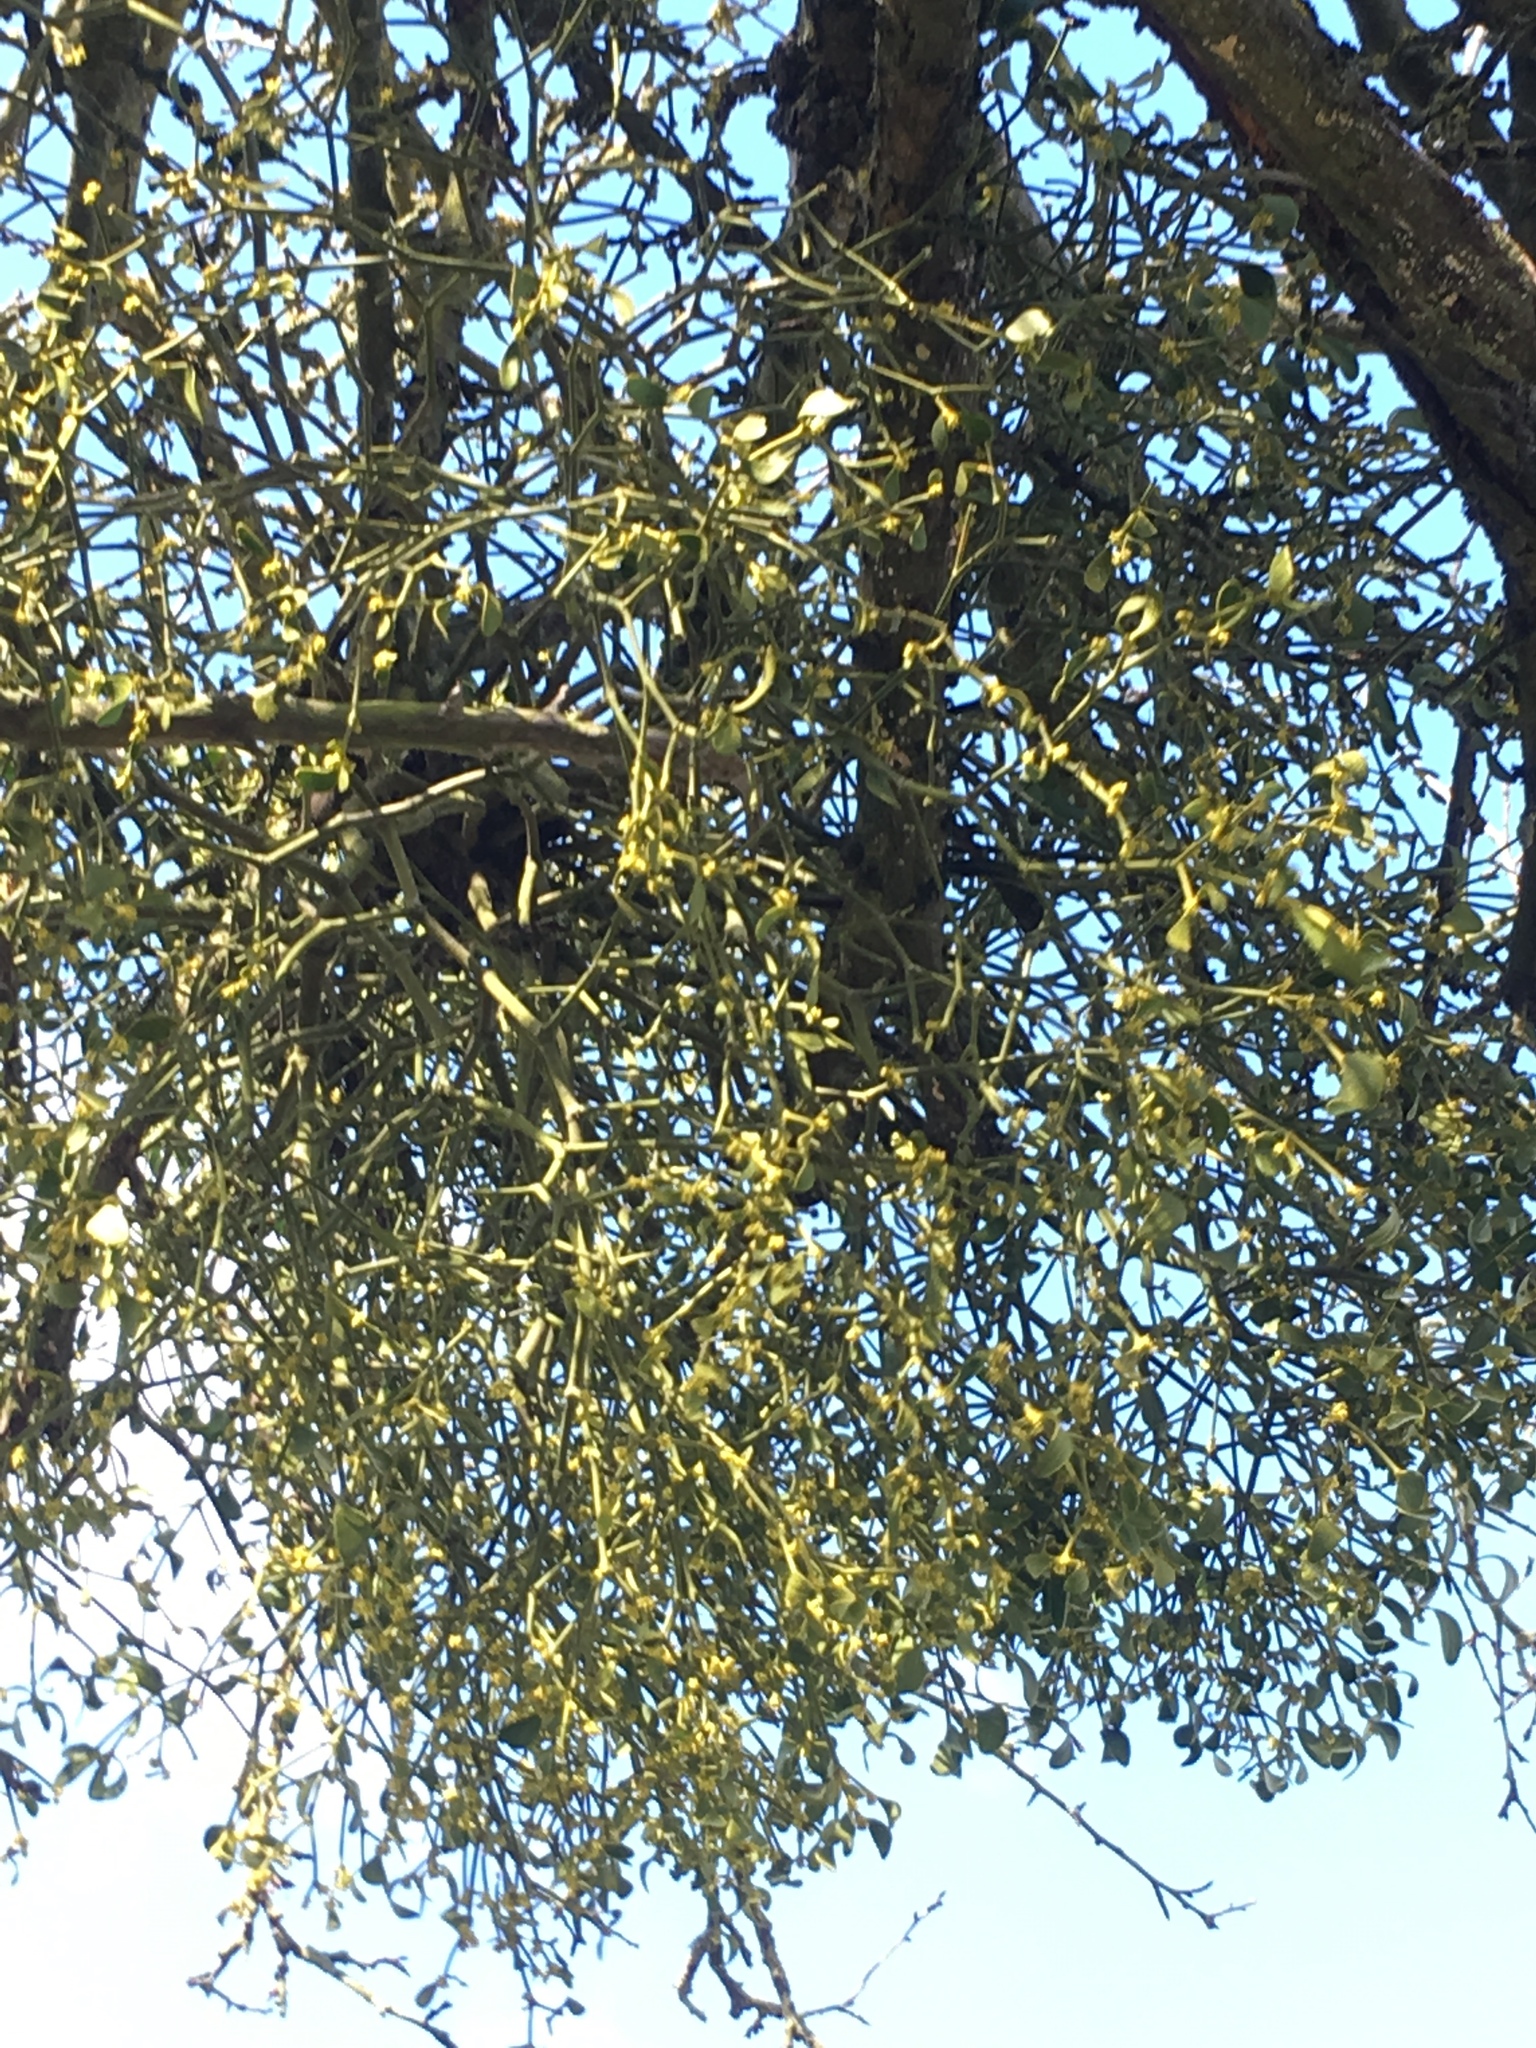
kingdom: Plantae
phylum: Tracheophyta
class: Magnoliopsida
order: Santalales
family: Viscaceae
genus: Viscum
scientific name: Viscum album
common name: Mistletoe
